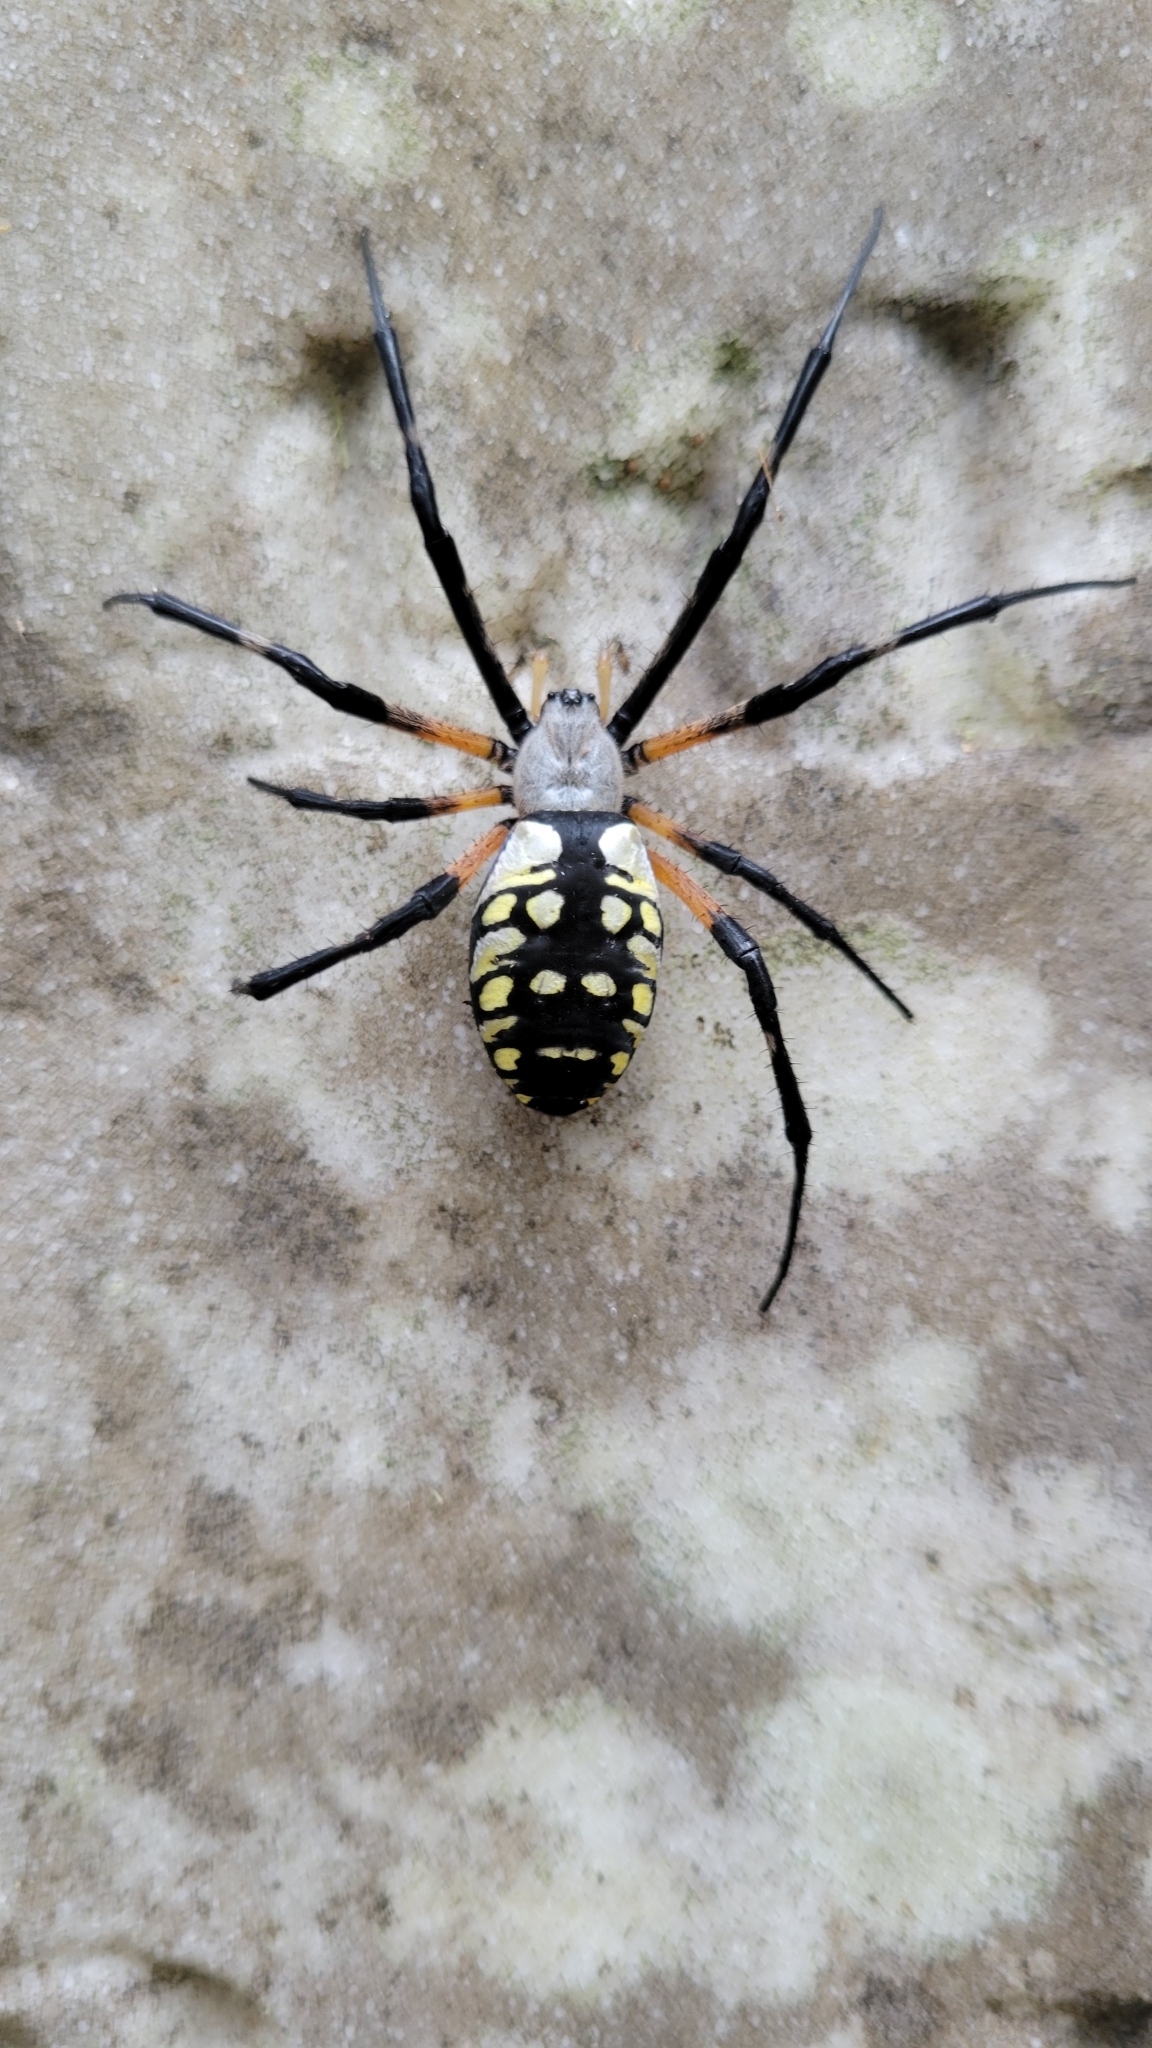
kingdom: Animalia
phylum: Arthropoda
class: Arachnida
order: Araneae
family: Araneidae
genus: Argiope
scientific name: Argiope aurantia
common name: Orb weavers
